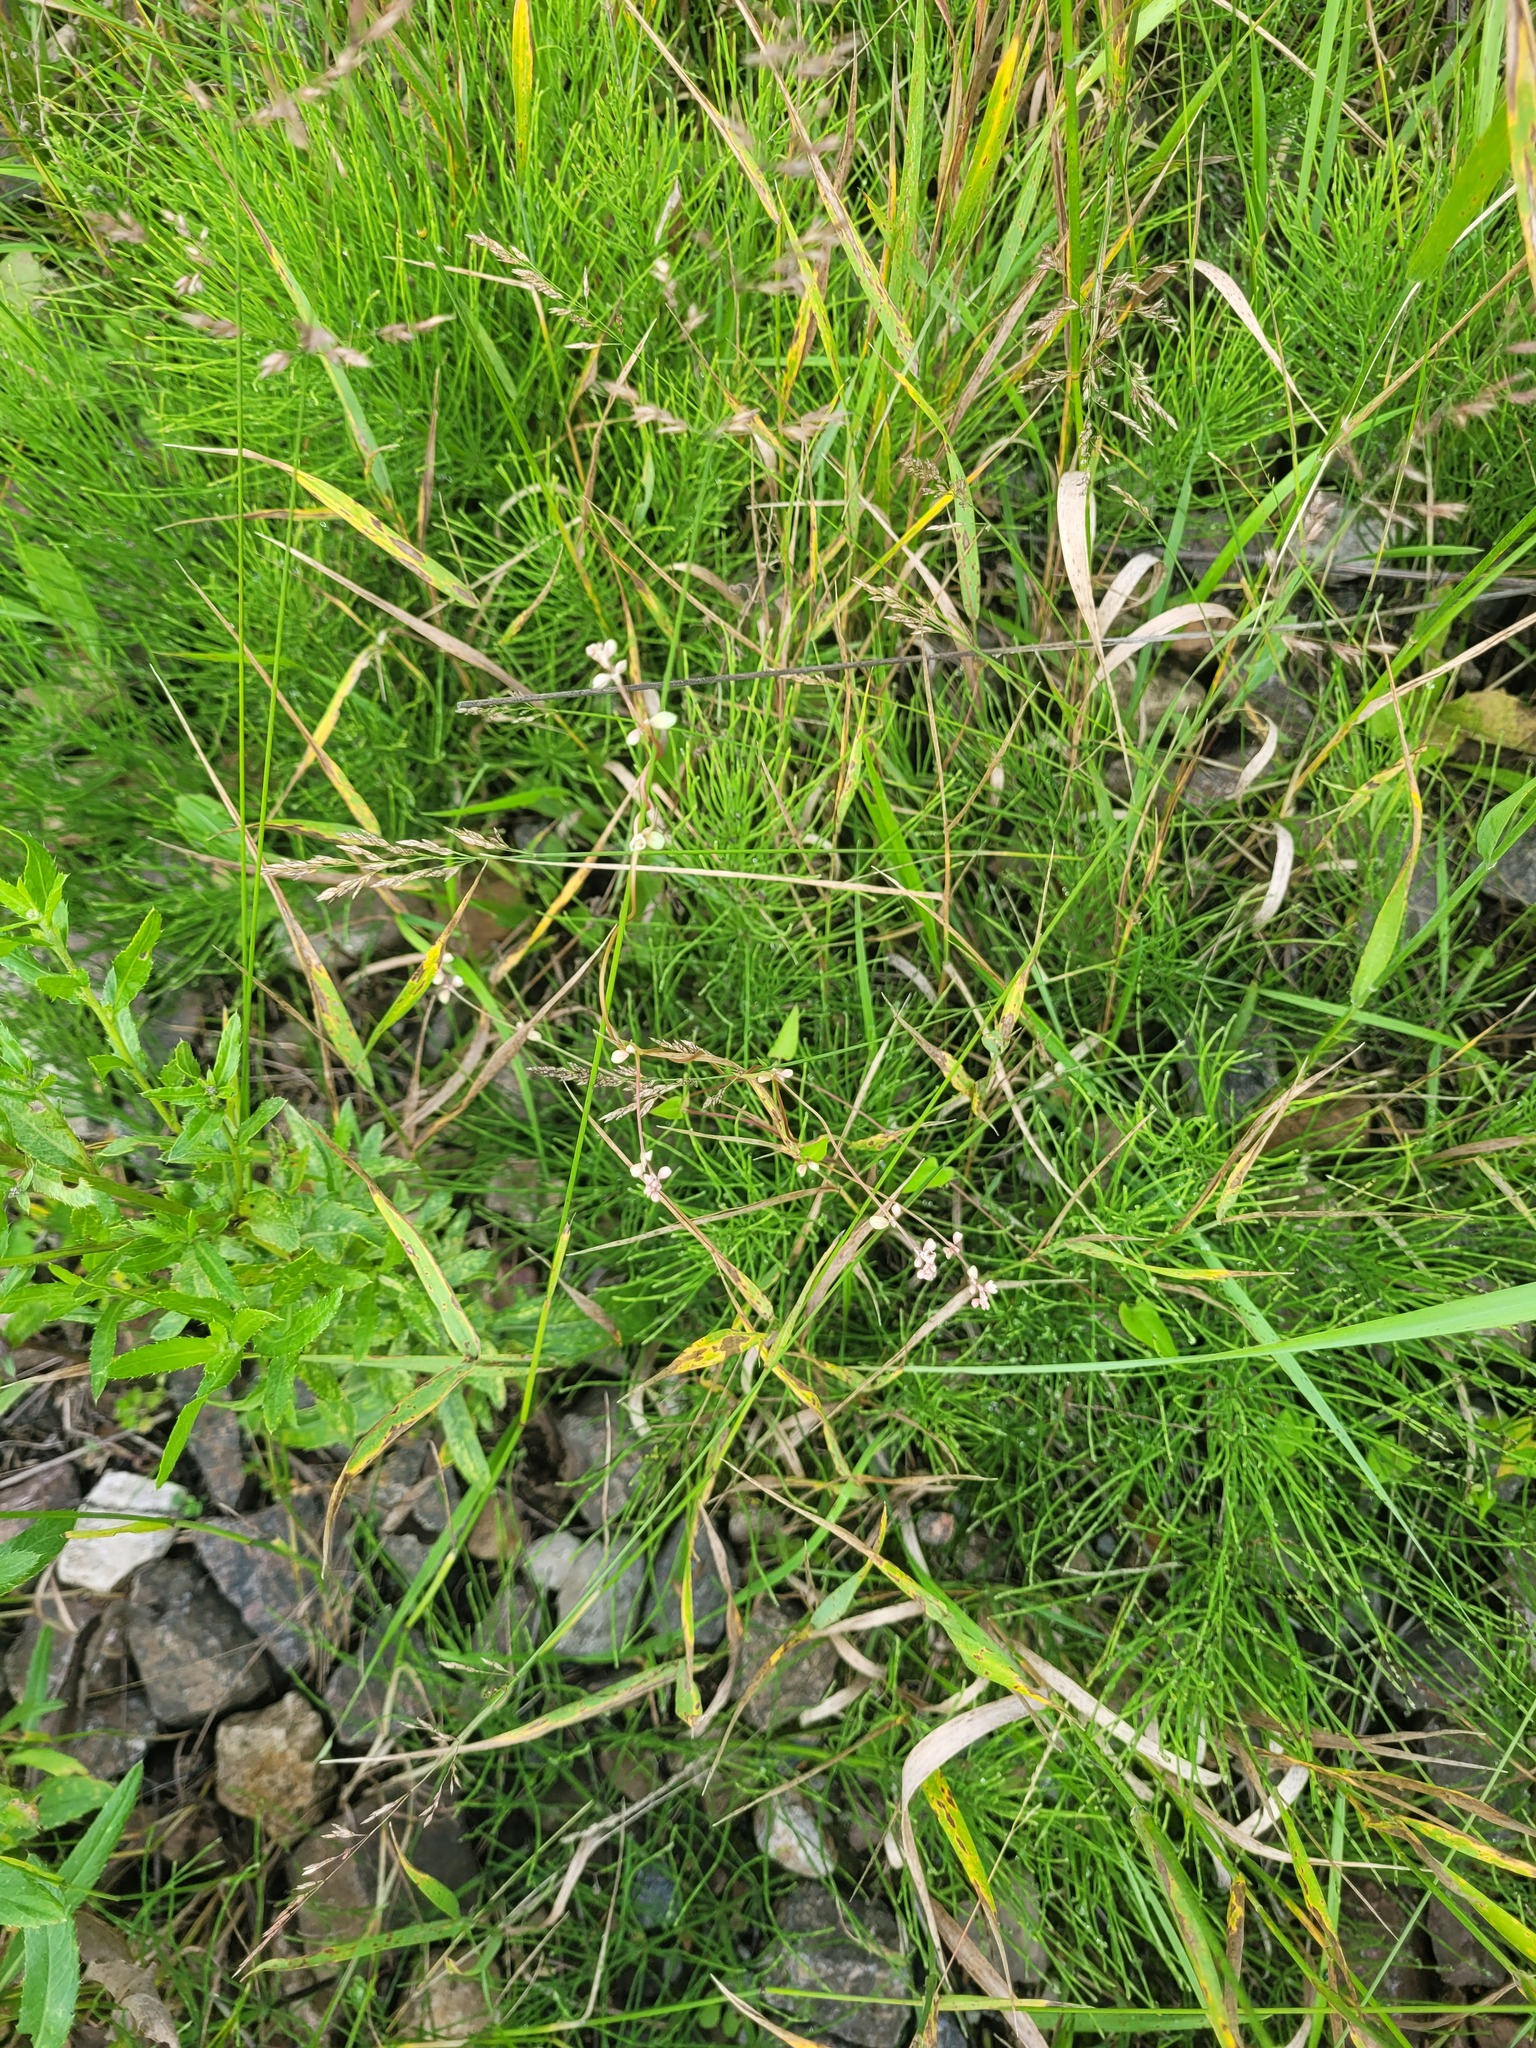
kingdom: Plantae
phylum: Tracheophyta
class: Magnoliopsida
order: Caryophyllales
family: Polygonaceae
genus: Fallopia
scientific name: Fallopia convolvulus
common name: Black bindweed
